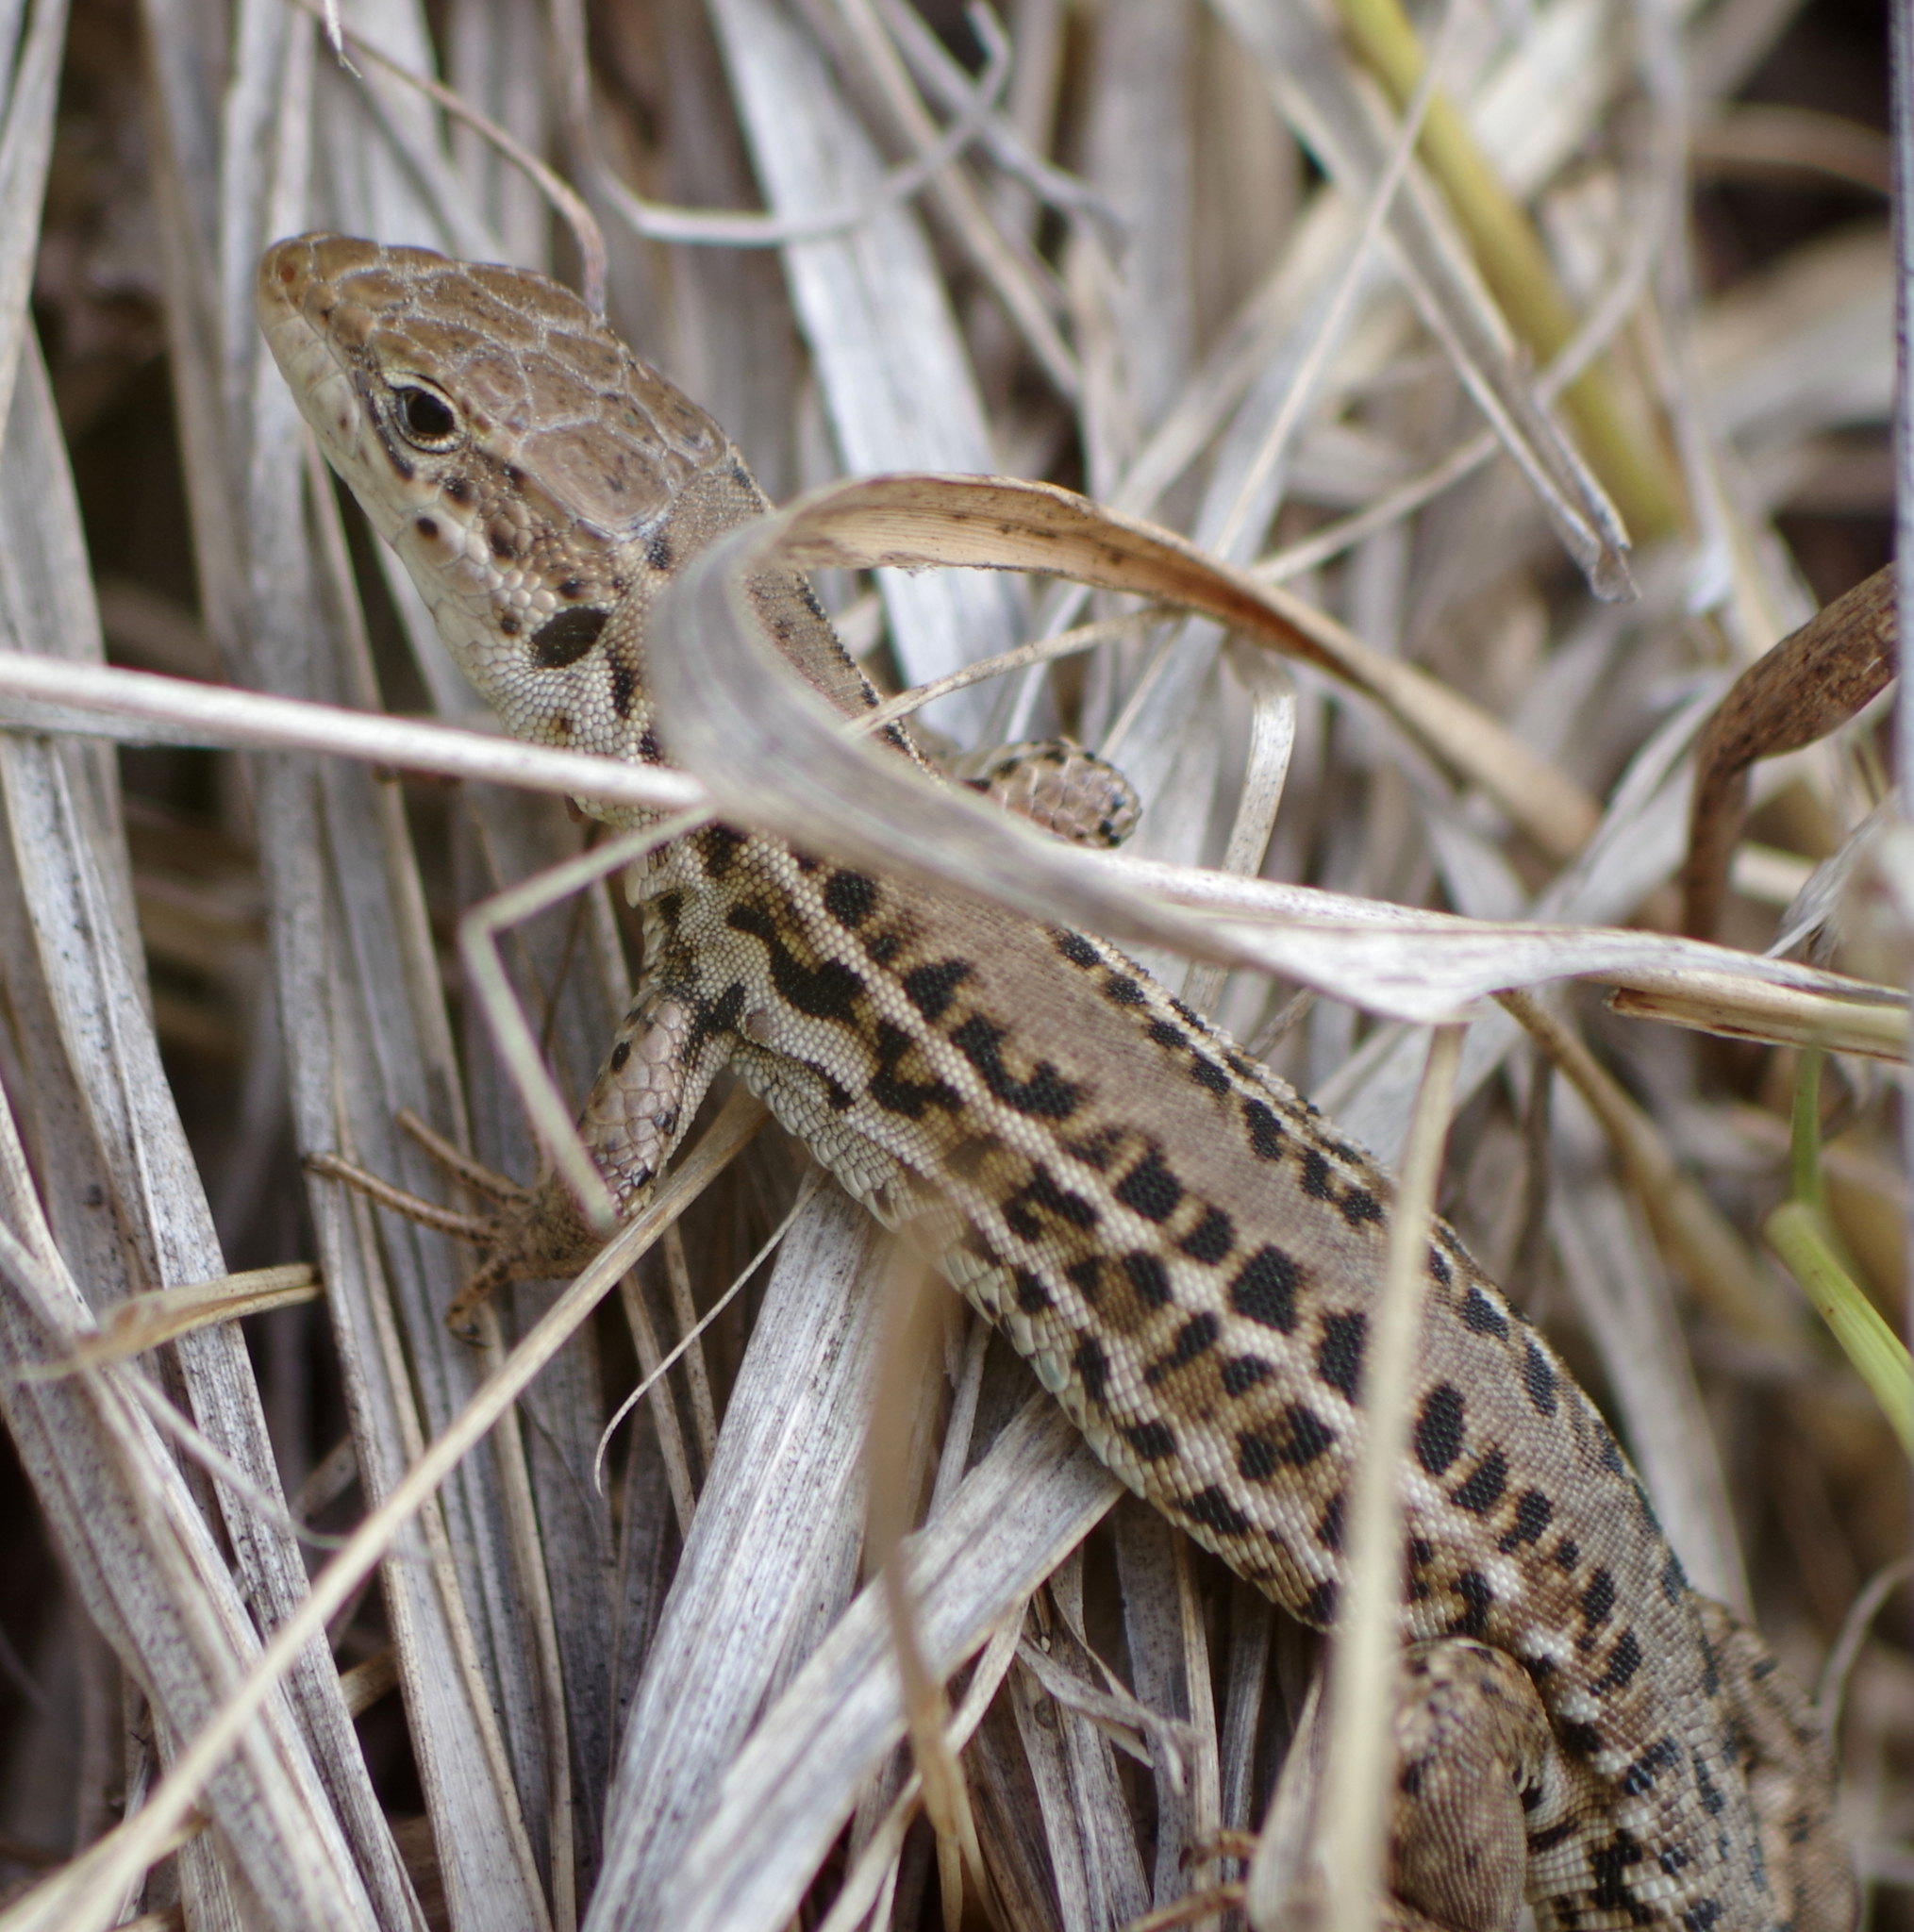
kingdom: Animalia
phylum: Chordata
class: Squamata
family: Lacertidae
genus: Podarcis
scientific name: Podarcis tauricus
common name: Balkan wall lizard
